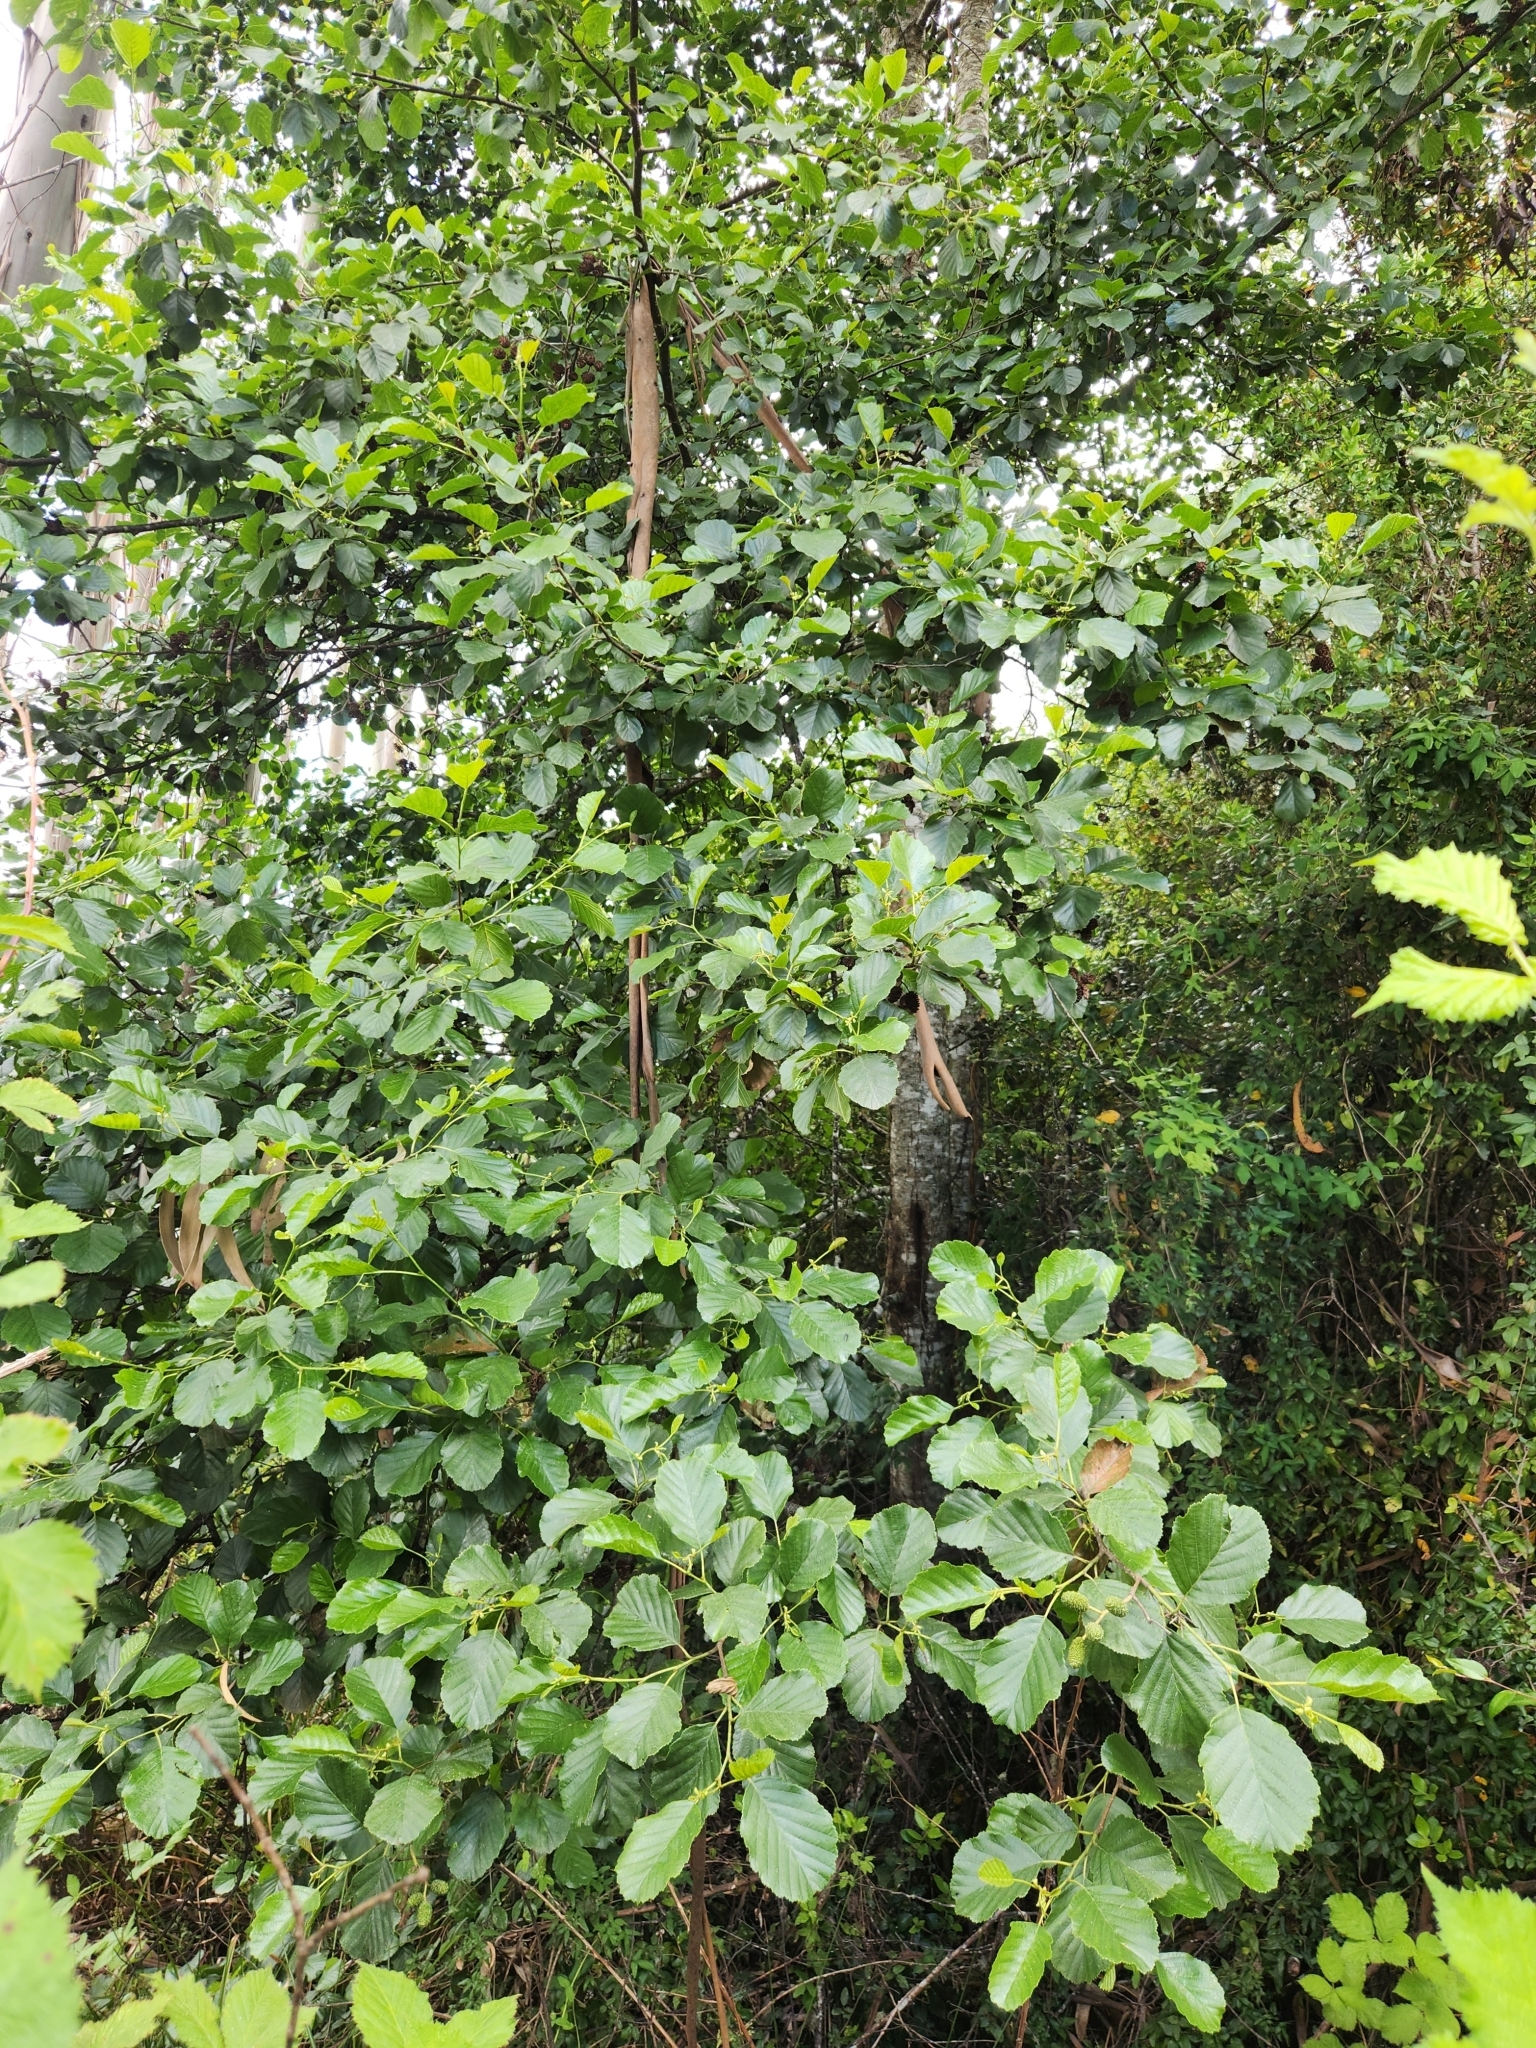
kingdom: Plantae
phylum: Tracheophyta
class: Magnoliopsida
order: Fagales
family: Betulaceae
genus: Alnus
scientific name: Alnus glutinosa
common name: Black alder
